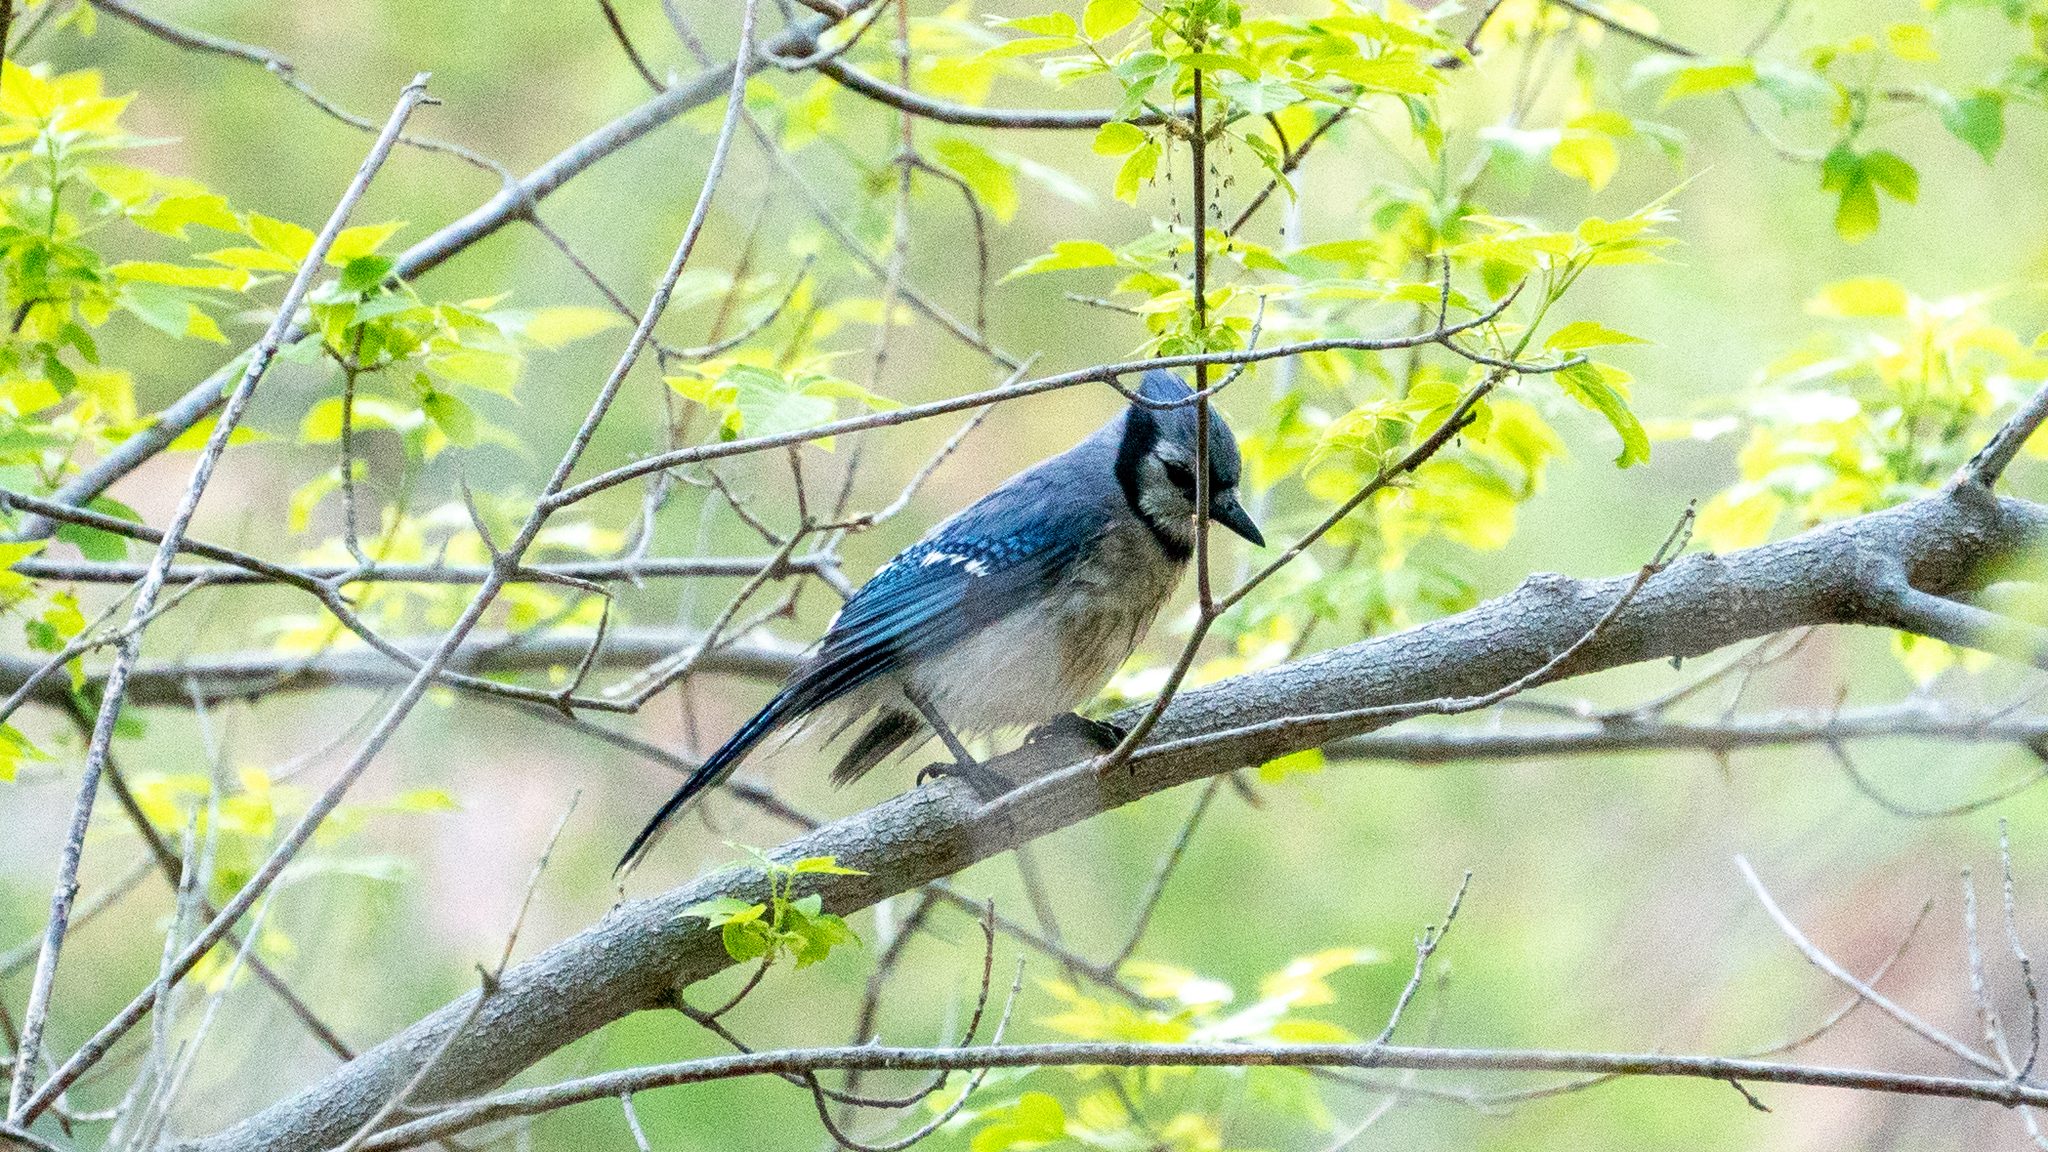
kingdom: Animalia
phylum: Chordata
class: Aves
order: Passeriformes
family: Corvidae
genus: Cyanocitta
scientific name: Cyanocitta cristata
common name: Blue jay
